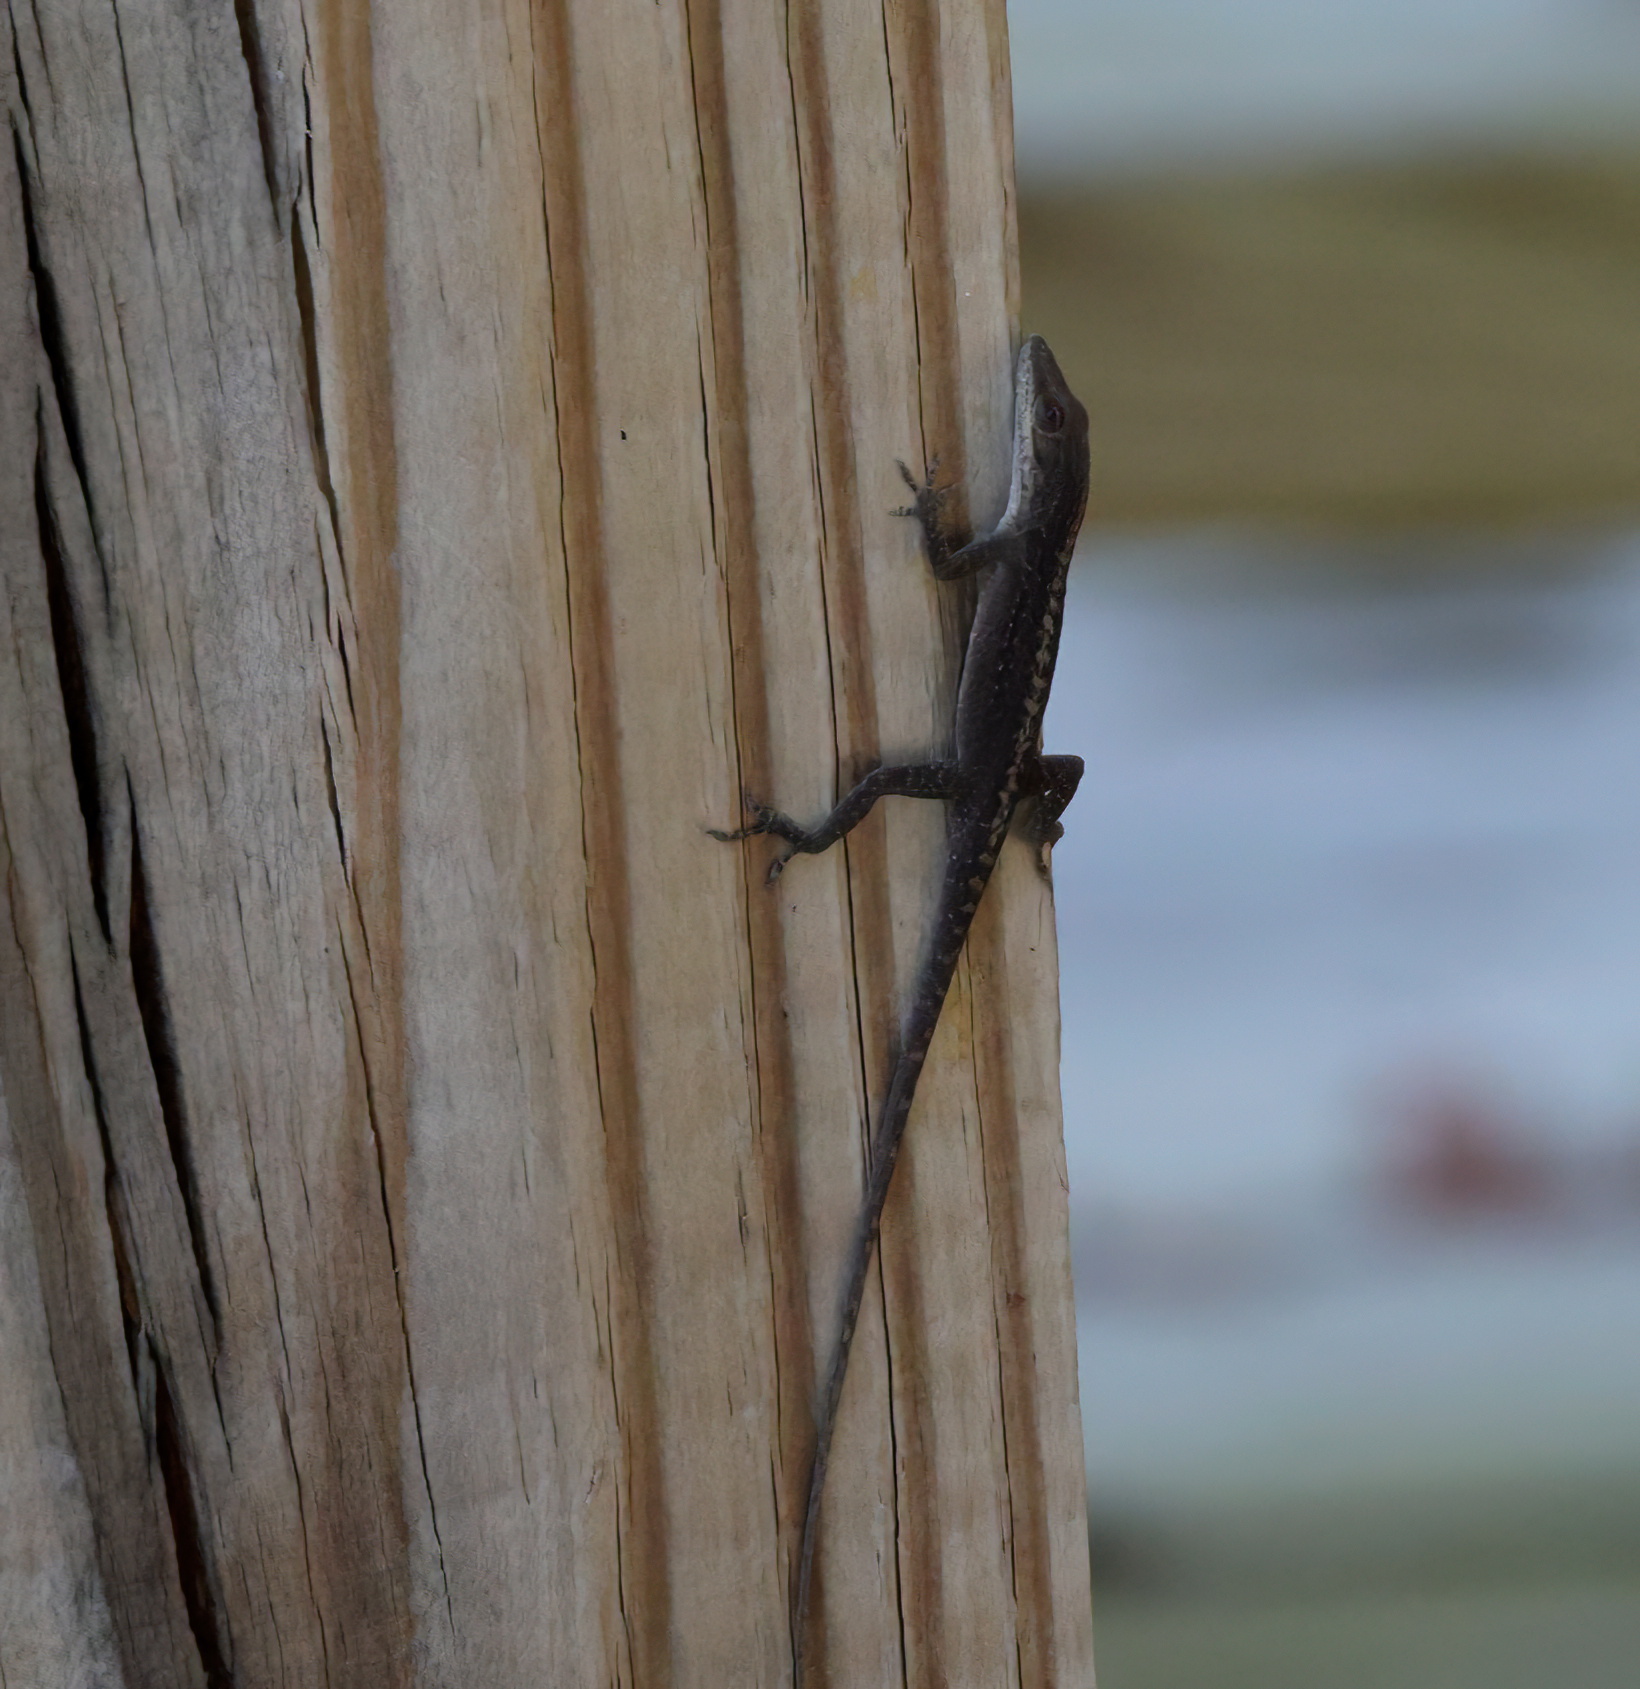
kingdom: Animalia
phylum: Chordata
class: Squamata
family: Dactyloidae
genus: Anolis
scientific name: Anolis carolinensis
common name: Green anole
